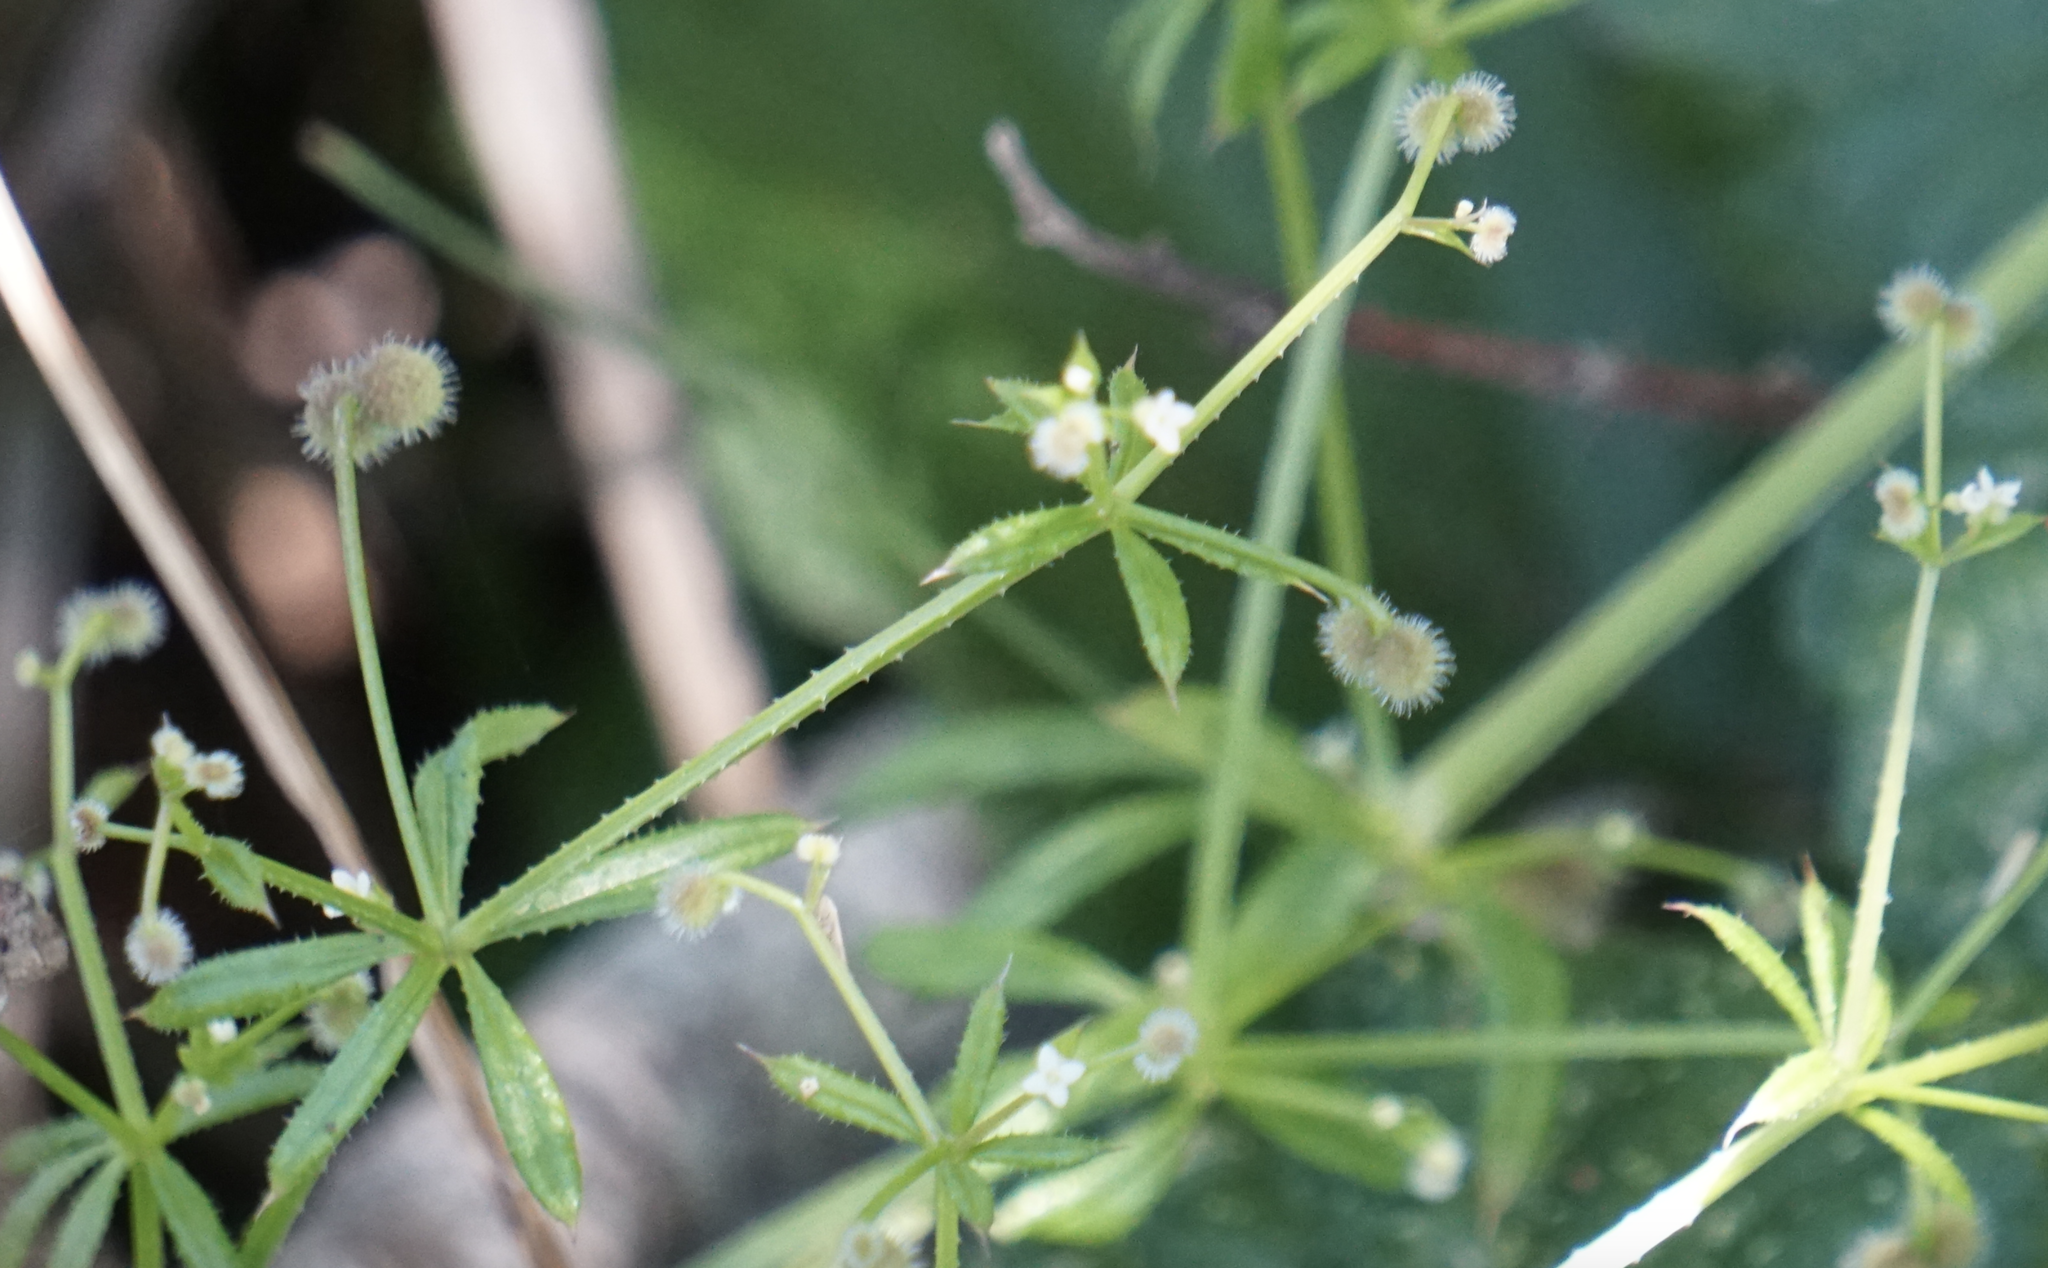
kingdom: Plantae
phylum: Tracheophyta
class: Magnoliopsida
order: Gentianales
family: Rubiaceae
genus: Galium
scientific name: Galium aparine
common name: Cleavers
